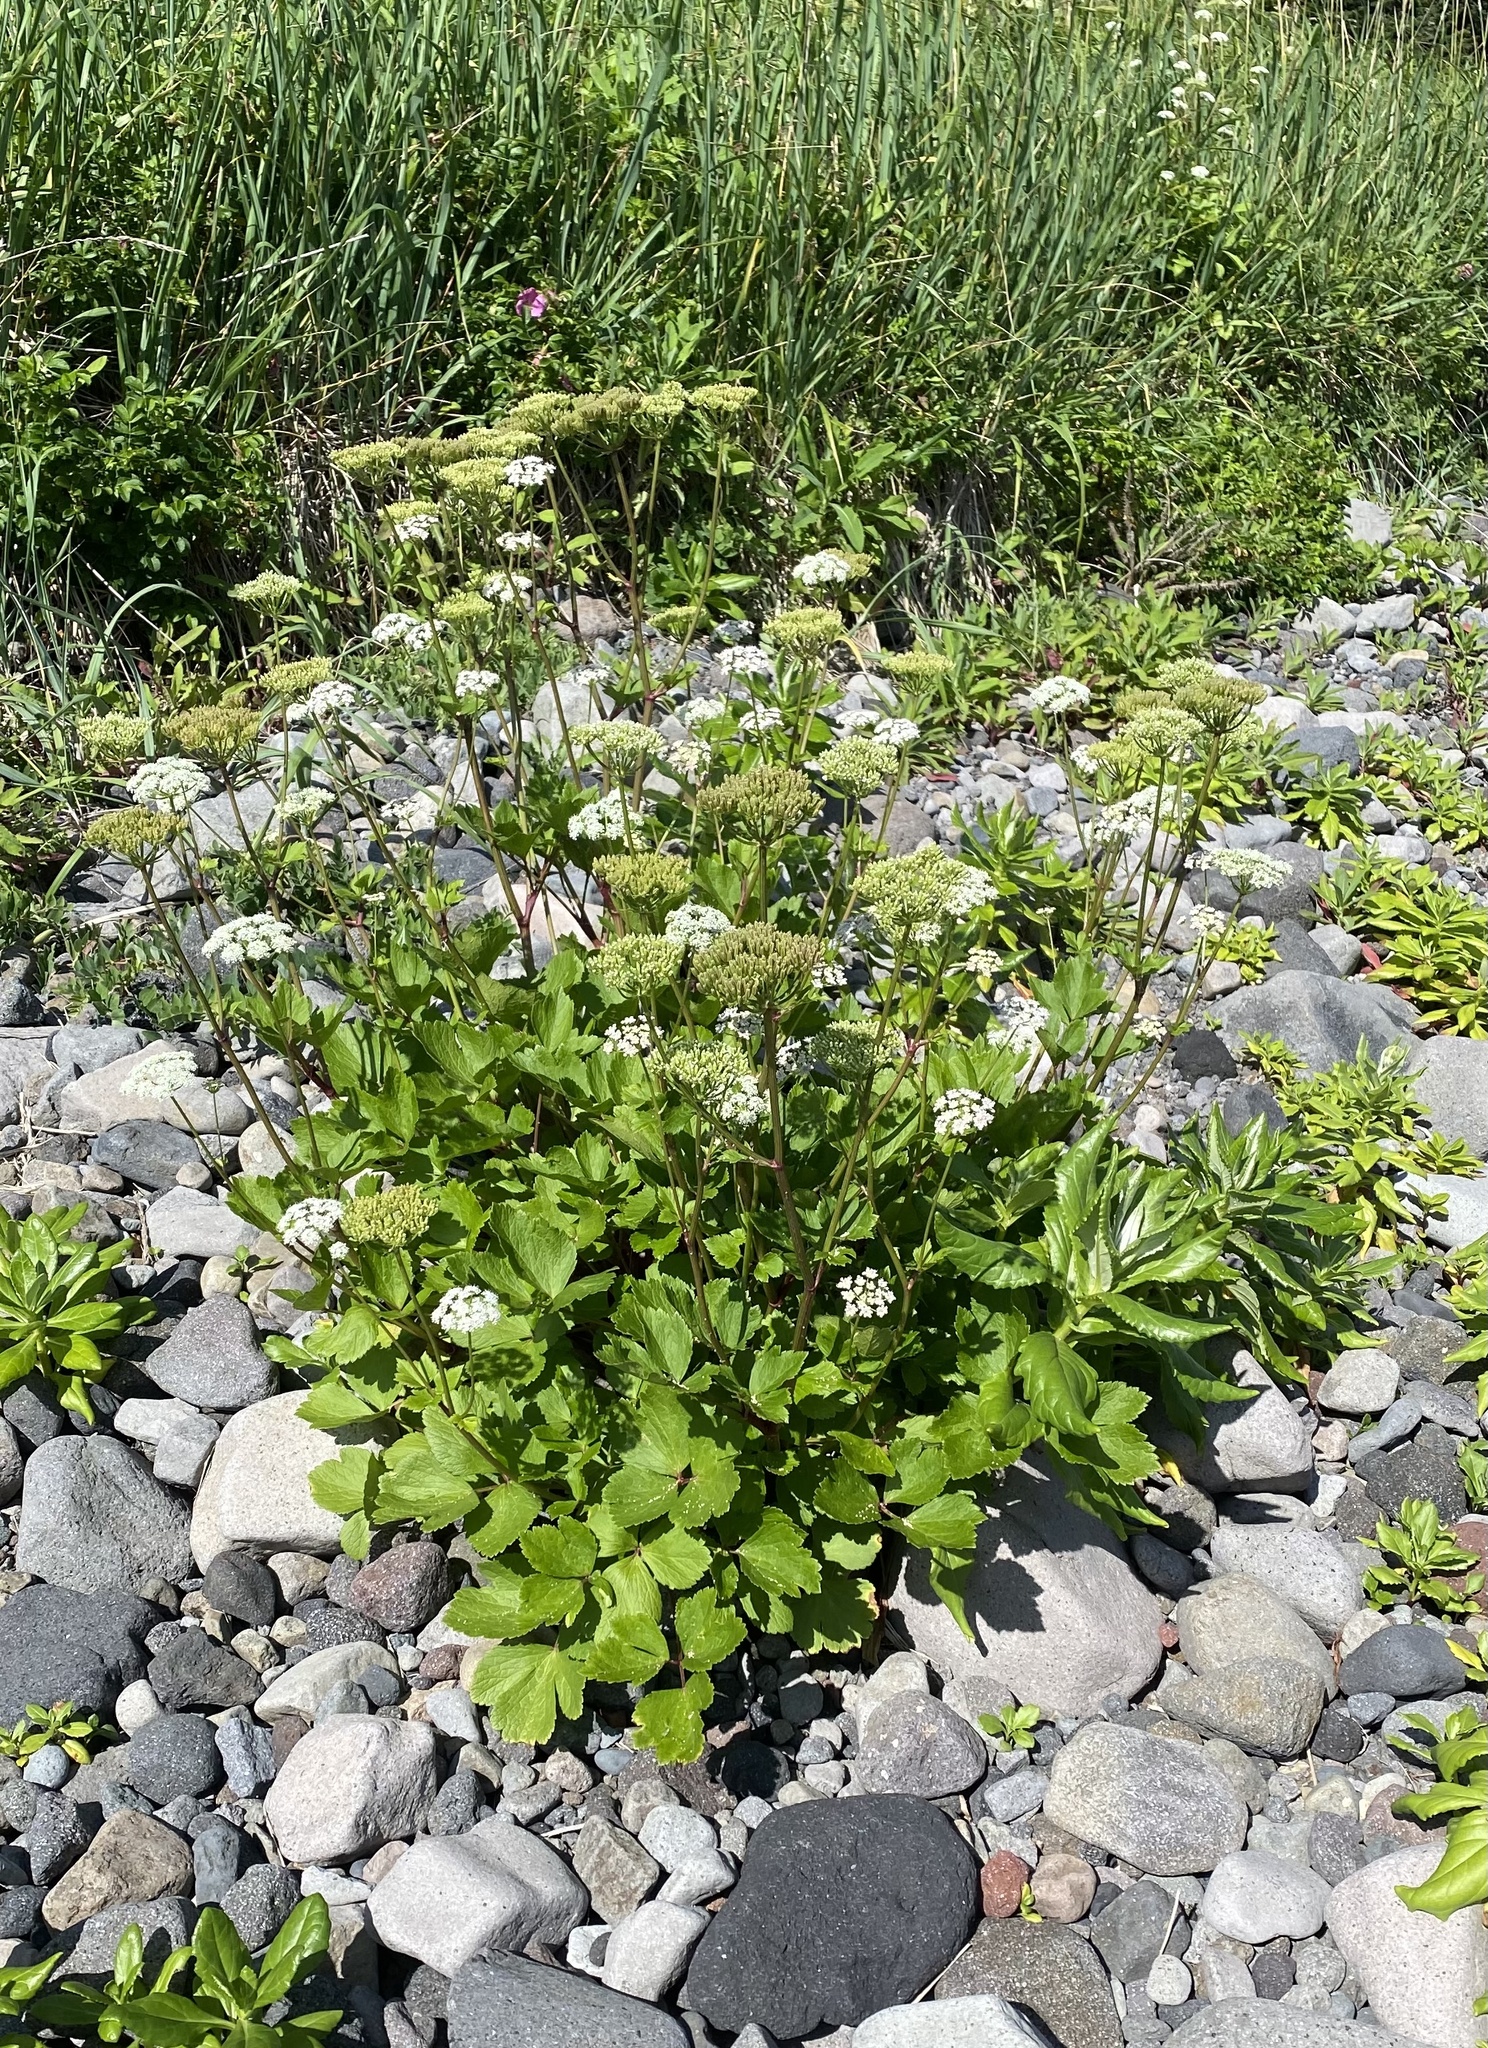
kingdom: Plantae
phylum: Tracheophyta
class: Magnoliopsida
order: Apiales
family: Apiaceae
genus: Ligusticum
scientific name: Ligusticum scothicum
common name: Beach lovage
